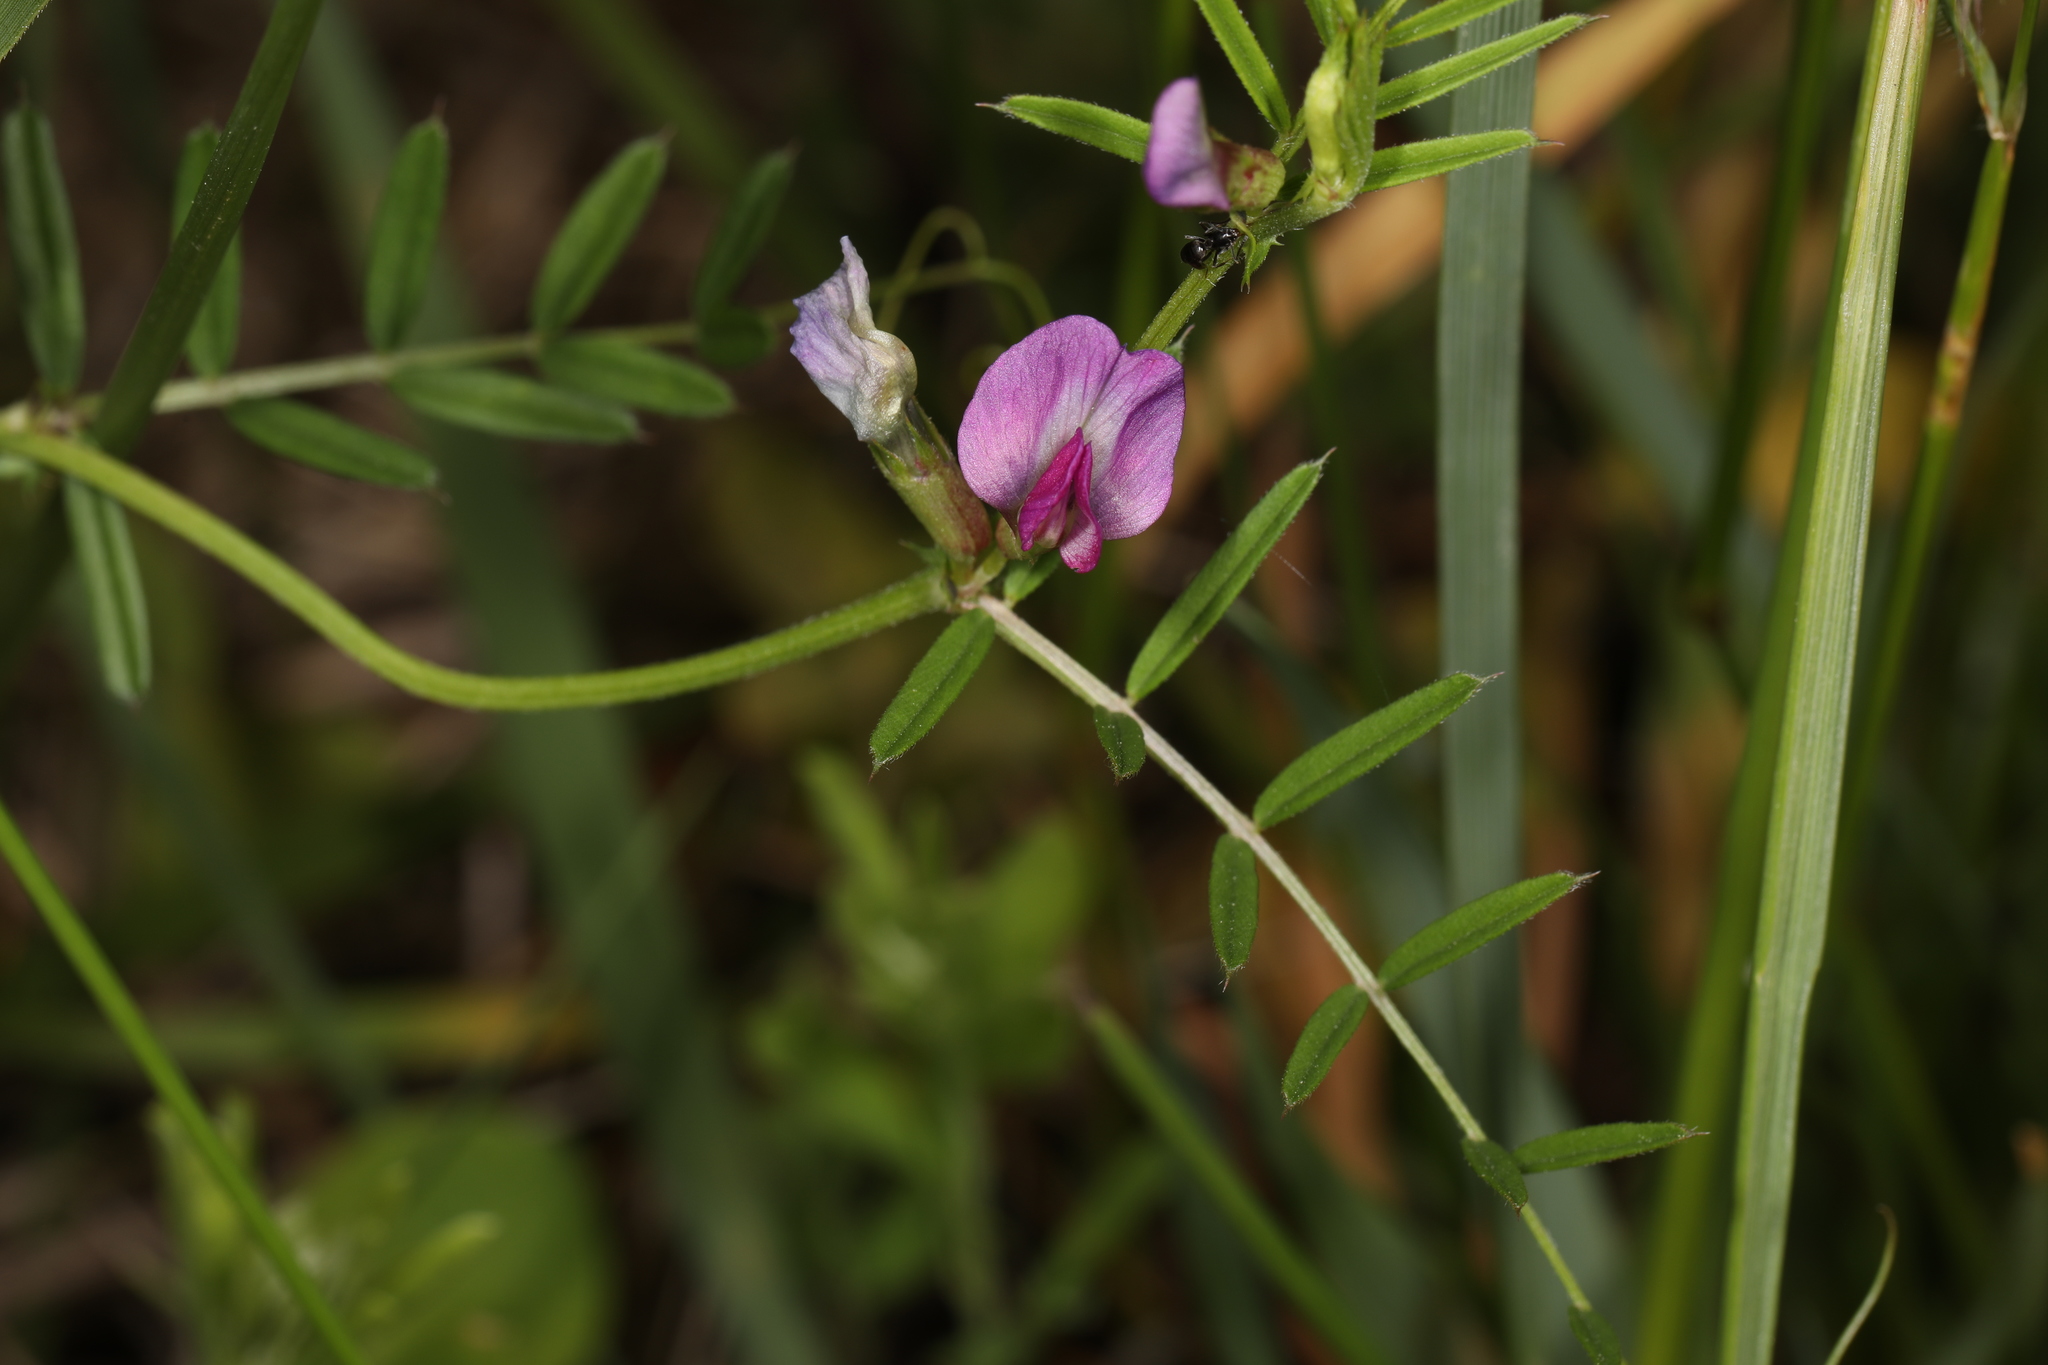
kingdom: Plantae
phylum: Tracheophyta
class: Magnoliopsida
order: Fabales
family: Fabaceae
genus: Vicia
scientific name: Vicia sativa
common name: Garden vetch
